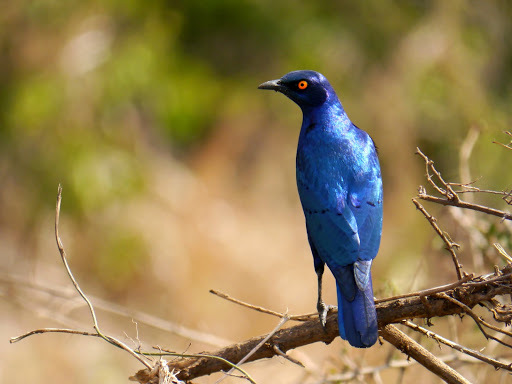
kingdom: Animalia
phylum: Chordata
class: Aves
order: Passeriformes
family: Sturnidae
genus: Lamprotornis
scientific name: Lamprotornis chalybaeus
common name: Greater blue-eared starling
